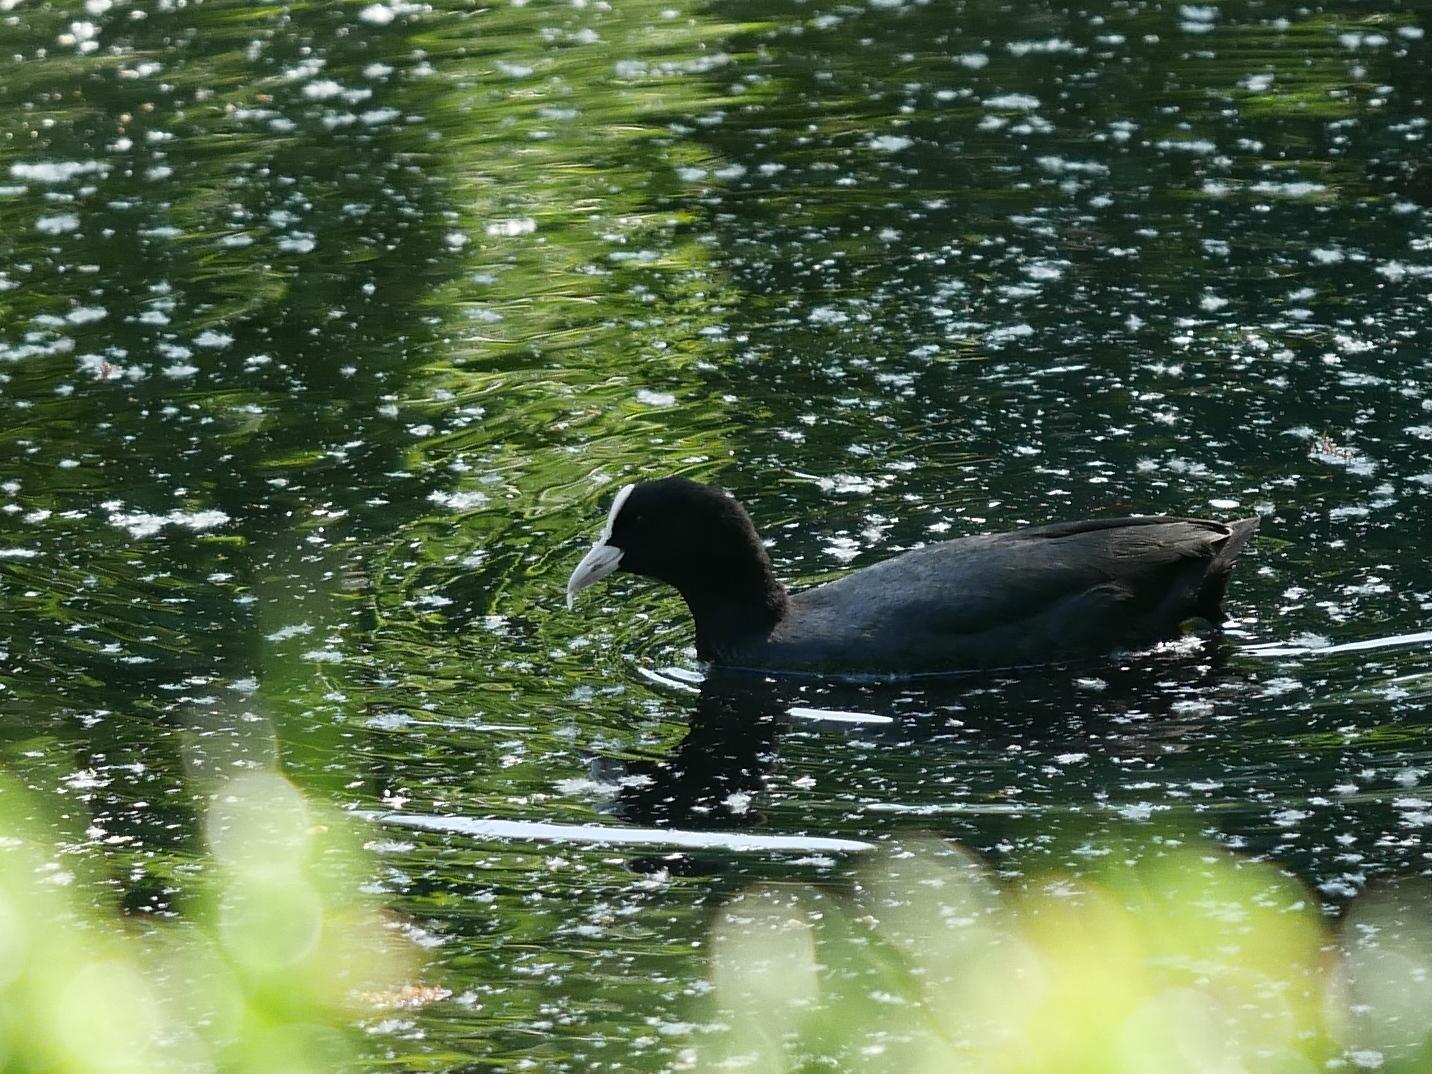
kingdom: Animalia
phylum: Chordata
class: Aves
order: Gruiformes
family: Rallidae
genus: Fulica
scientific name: Fulica atra
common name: Eurasian coot
